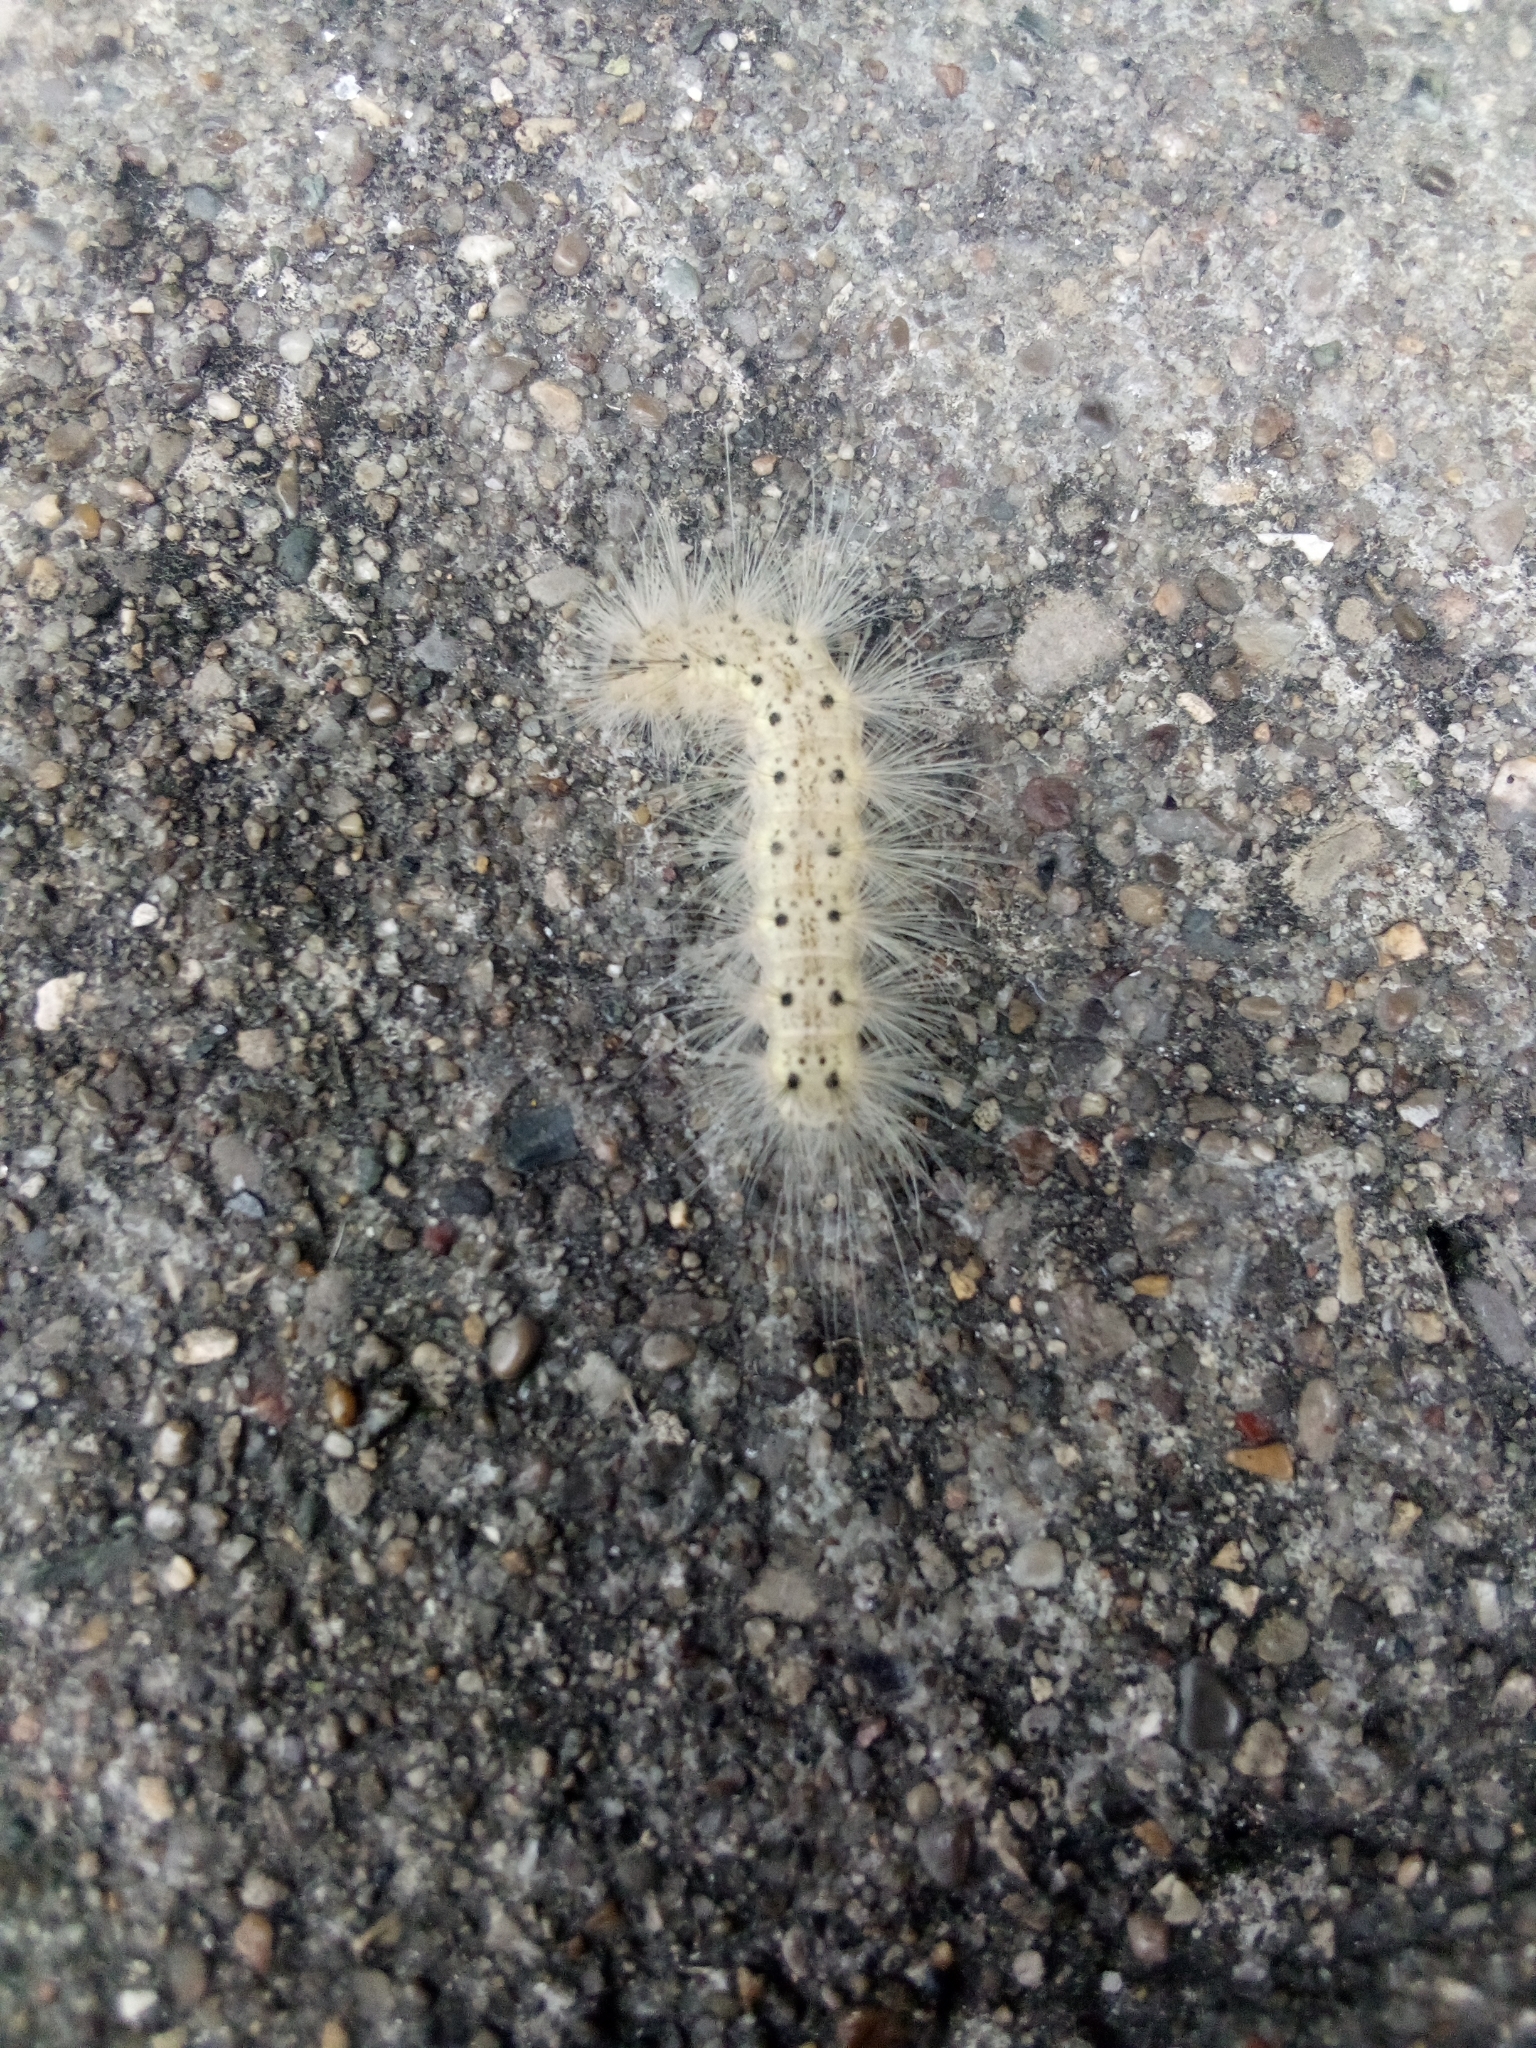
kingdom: Animalia
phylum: Arthropoda
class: Insecta
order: Lepidoptera
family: Erebidae
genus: Hyphantria
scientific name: Hyphantria cunea
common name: American white moth
